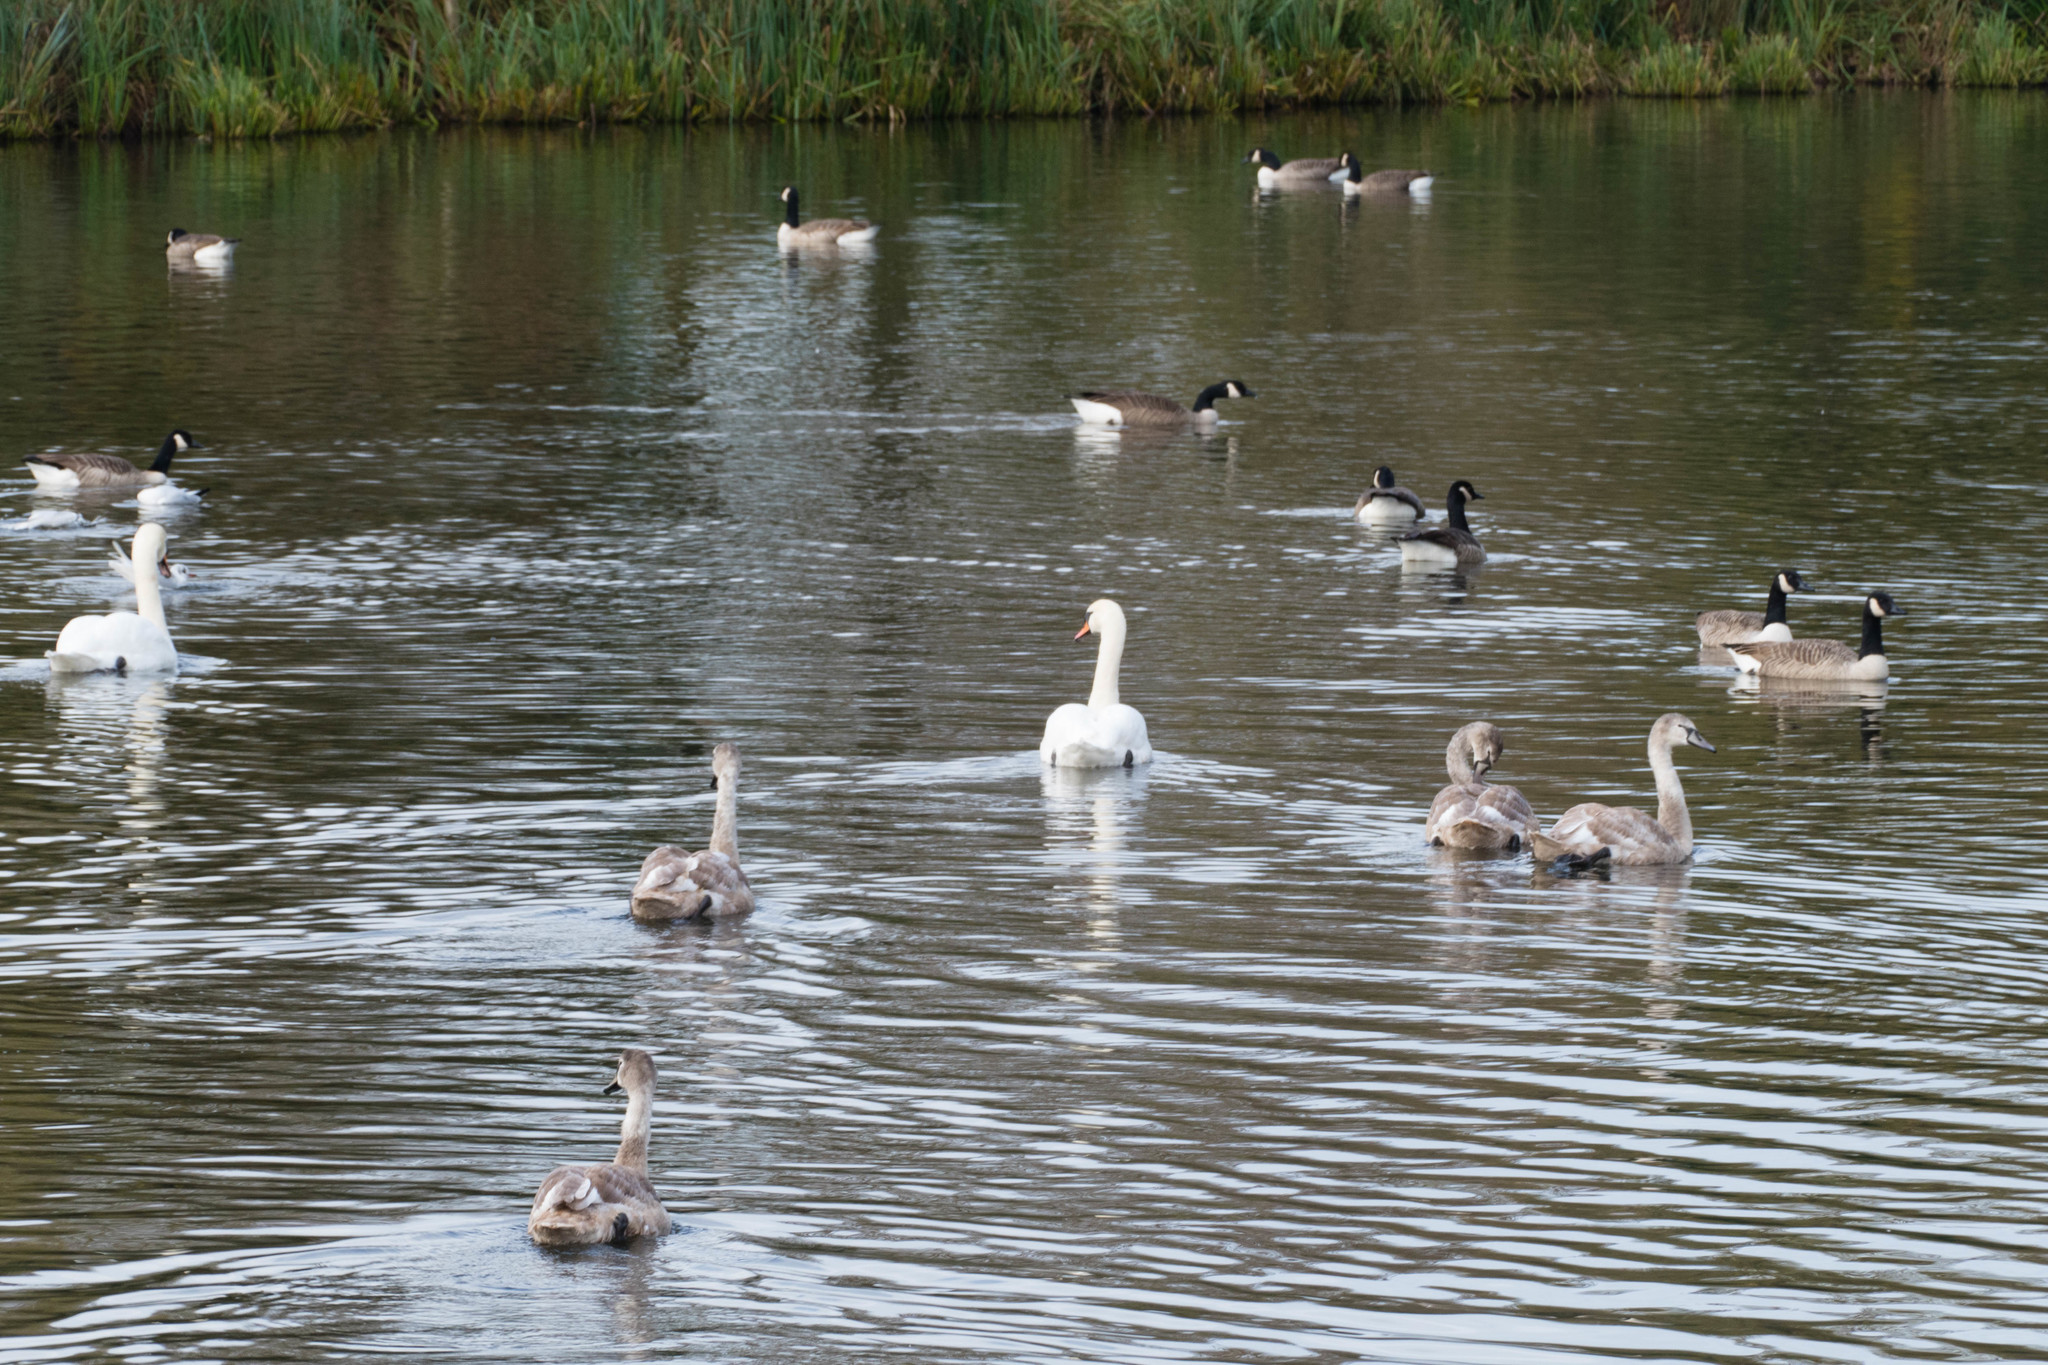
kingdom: Animalia
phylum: Chordata
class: Aves
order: Anseriformes
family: Anatidae
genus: Cygnus
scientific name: Cygnus olor
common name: Mute swan
